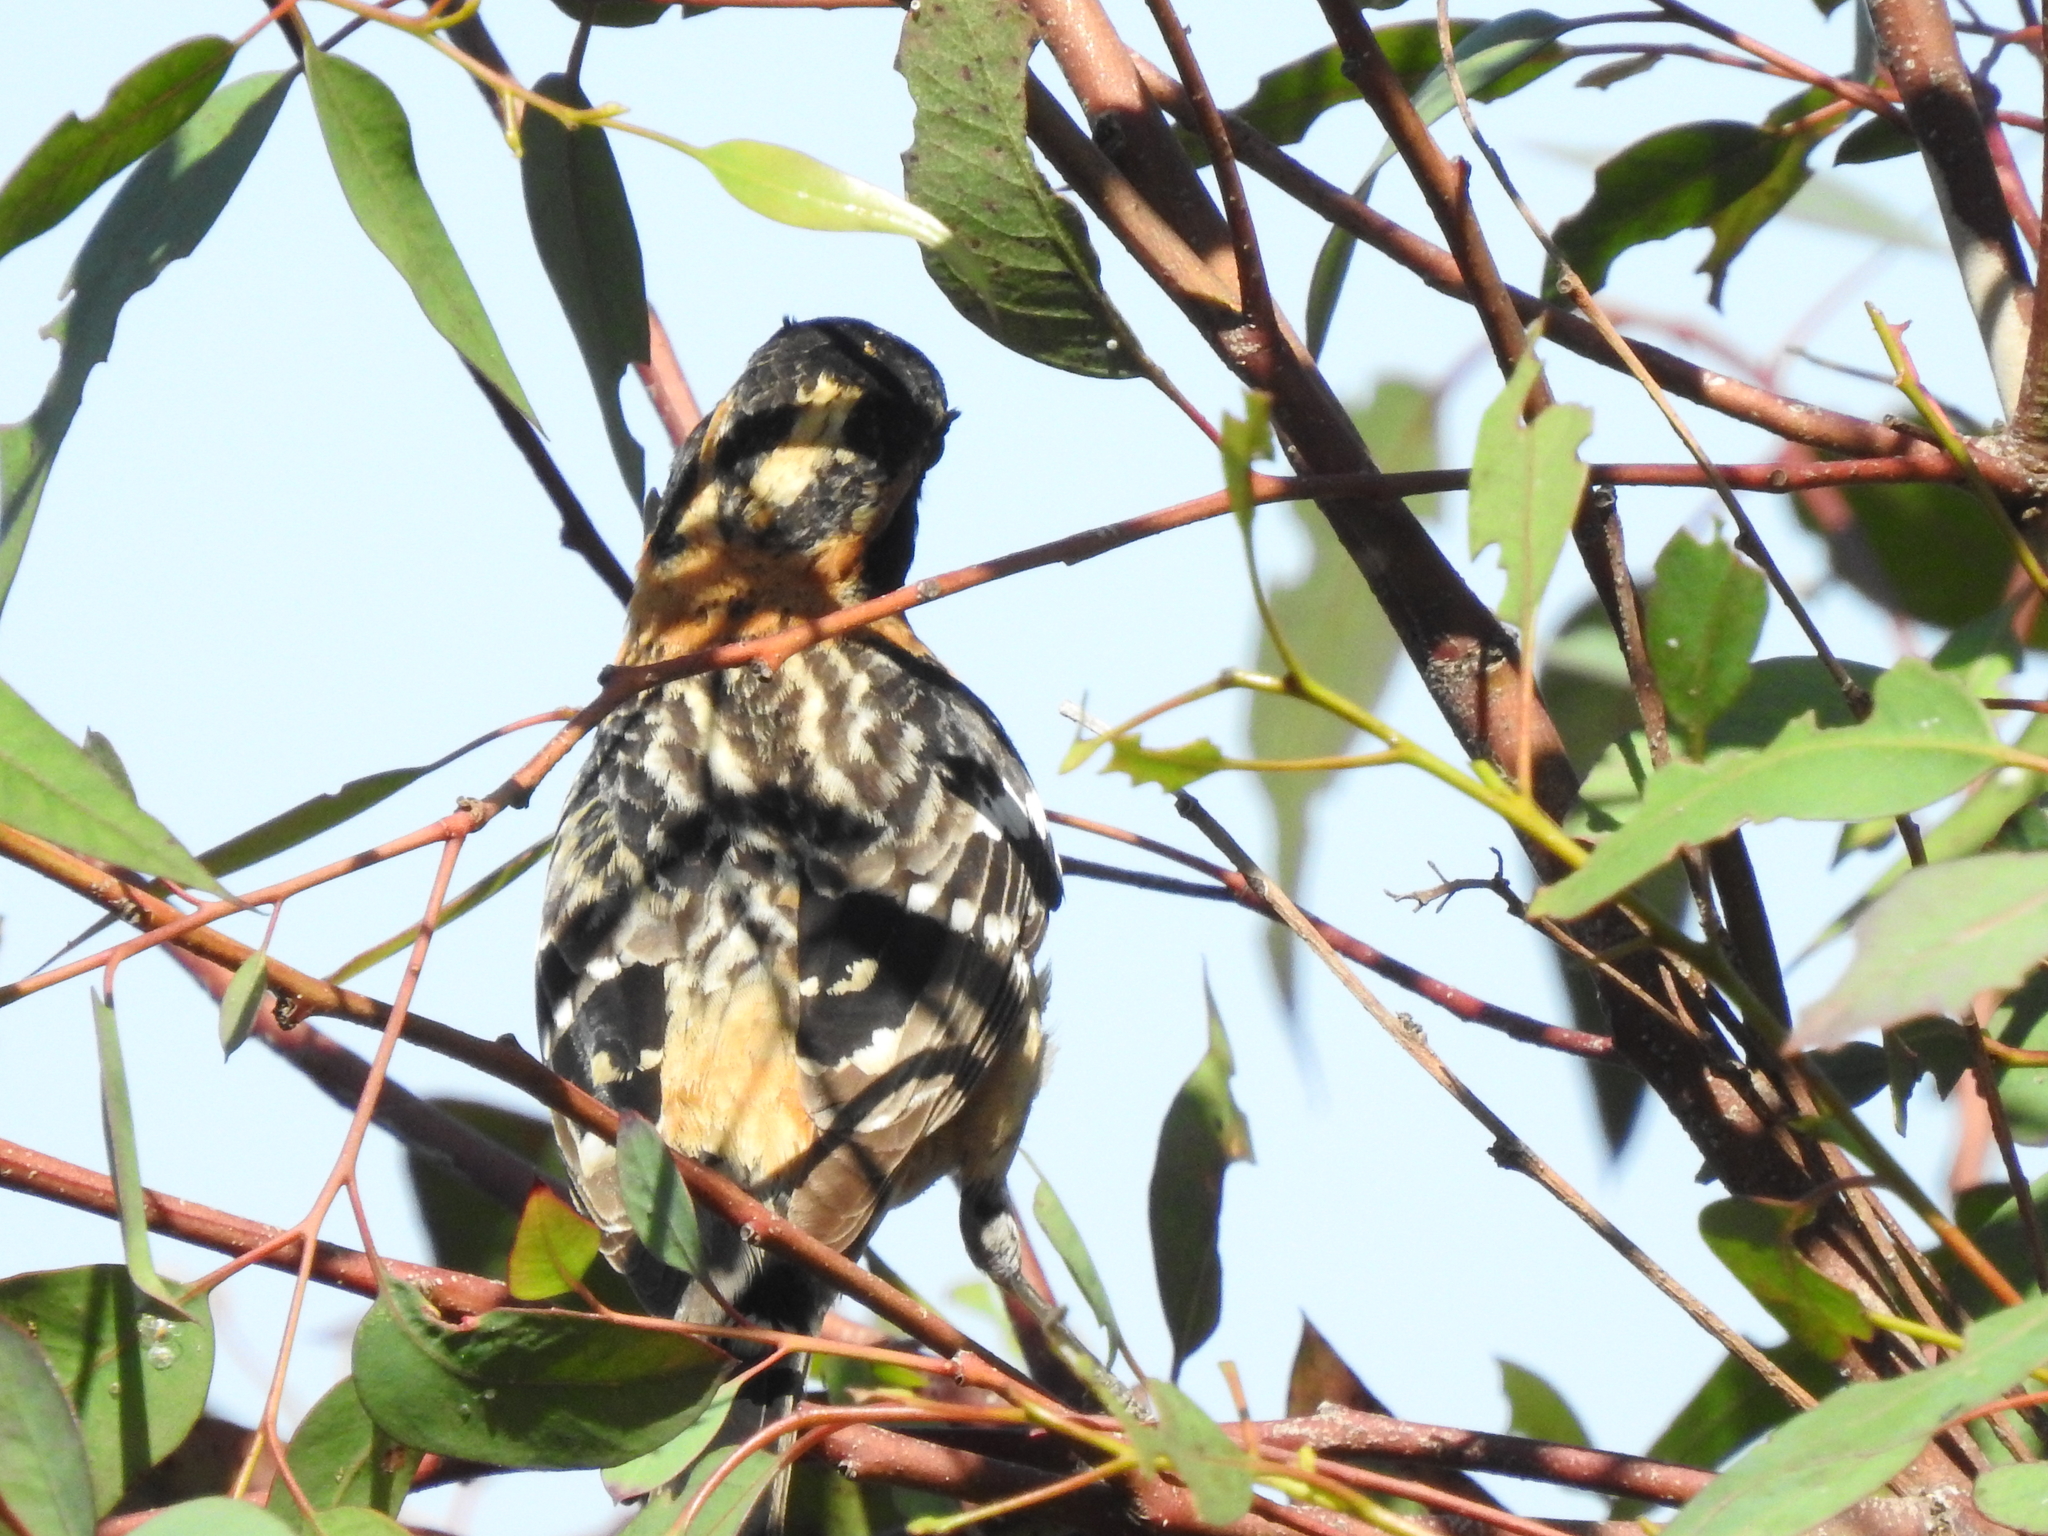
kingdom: Animalia
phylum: Chordata
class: Aves
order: Passeriformes
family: Cardinalidae
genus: Pheucticus
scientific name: Pheucticus melanocephalus
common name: Black-headed grosbeak
